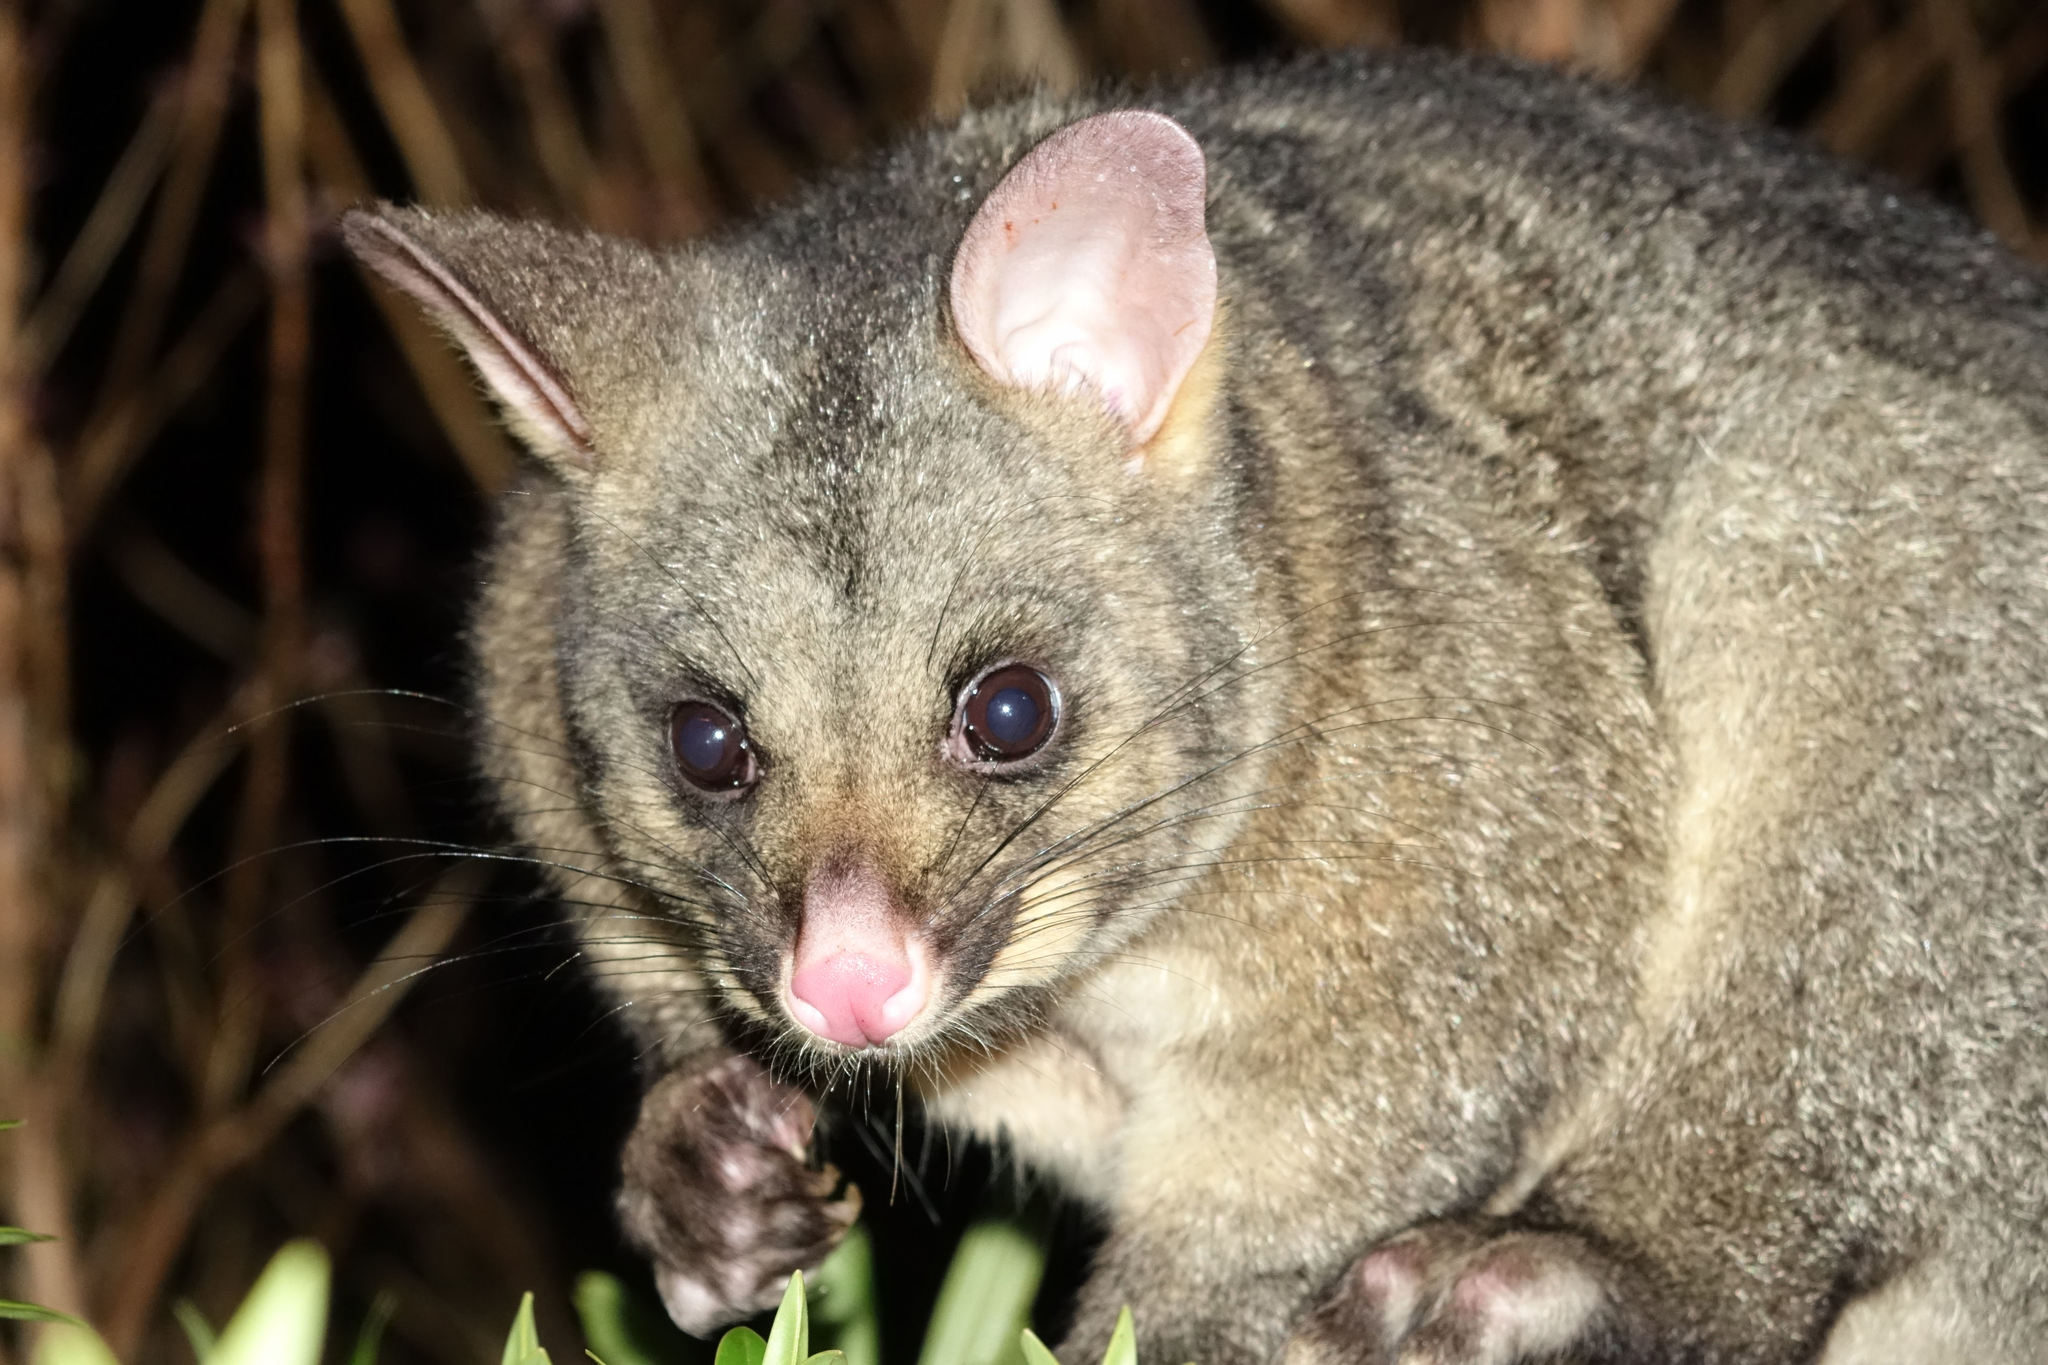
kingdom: Animalia
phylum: Chordata
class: Mammalia
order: Diprotodontia
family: Phalangeridae
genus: Trichosurus
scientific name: Trichosurus vulpecula
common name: Common brushtail
